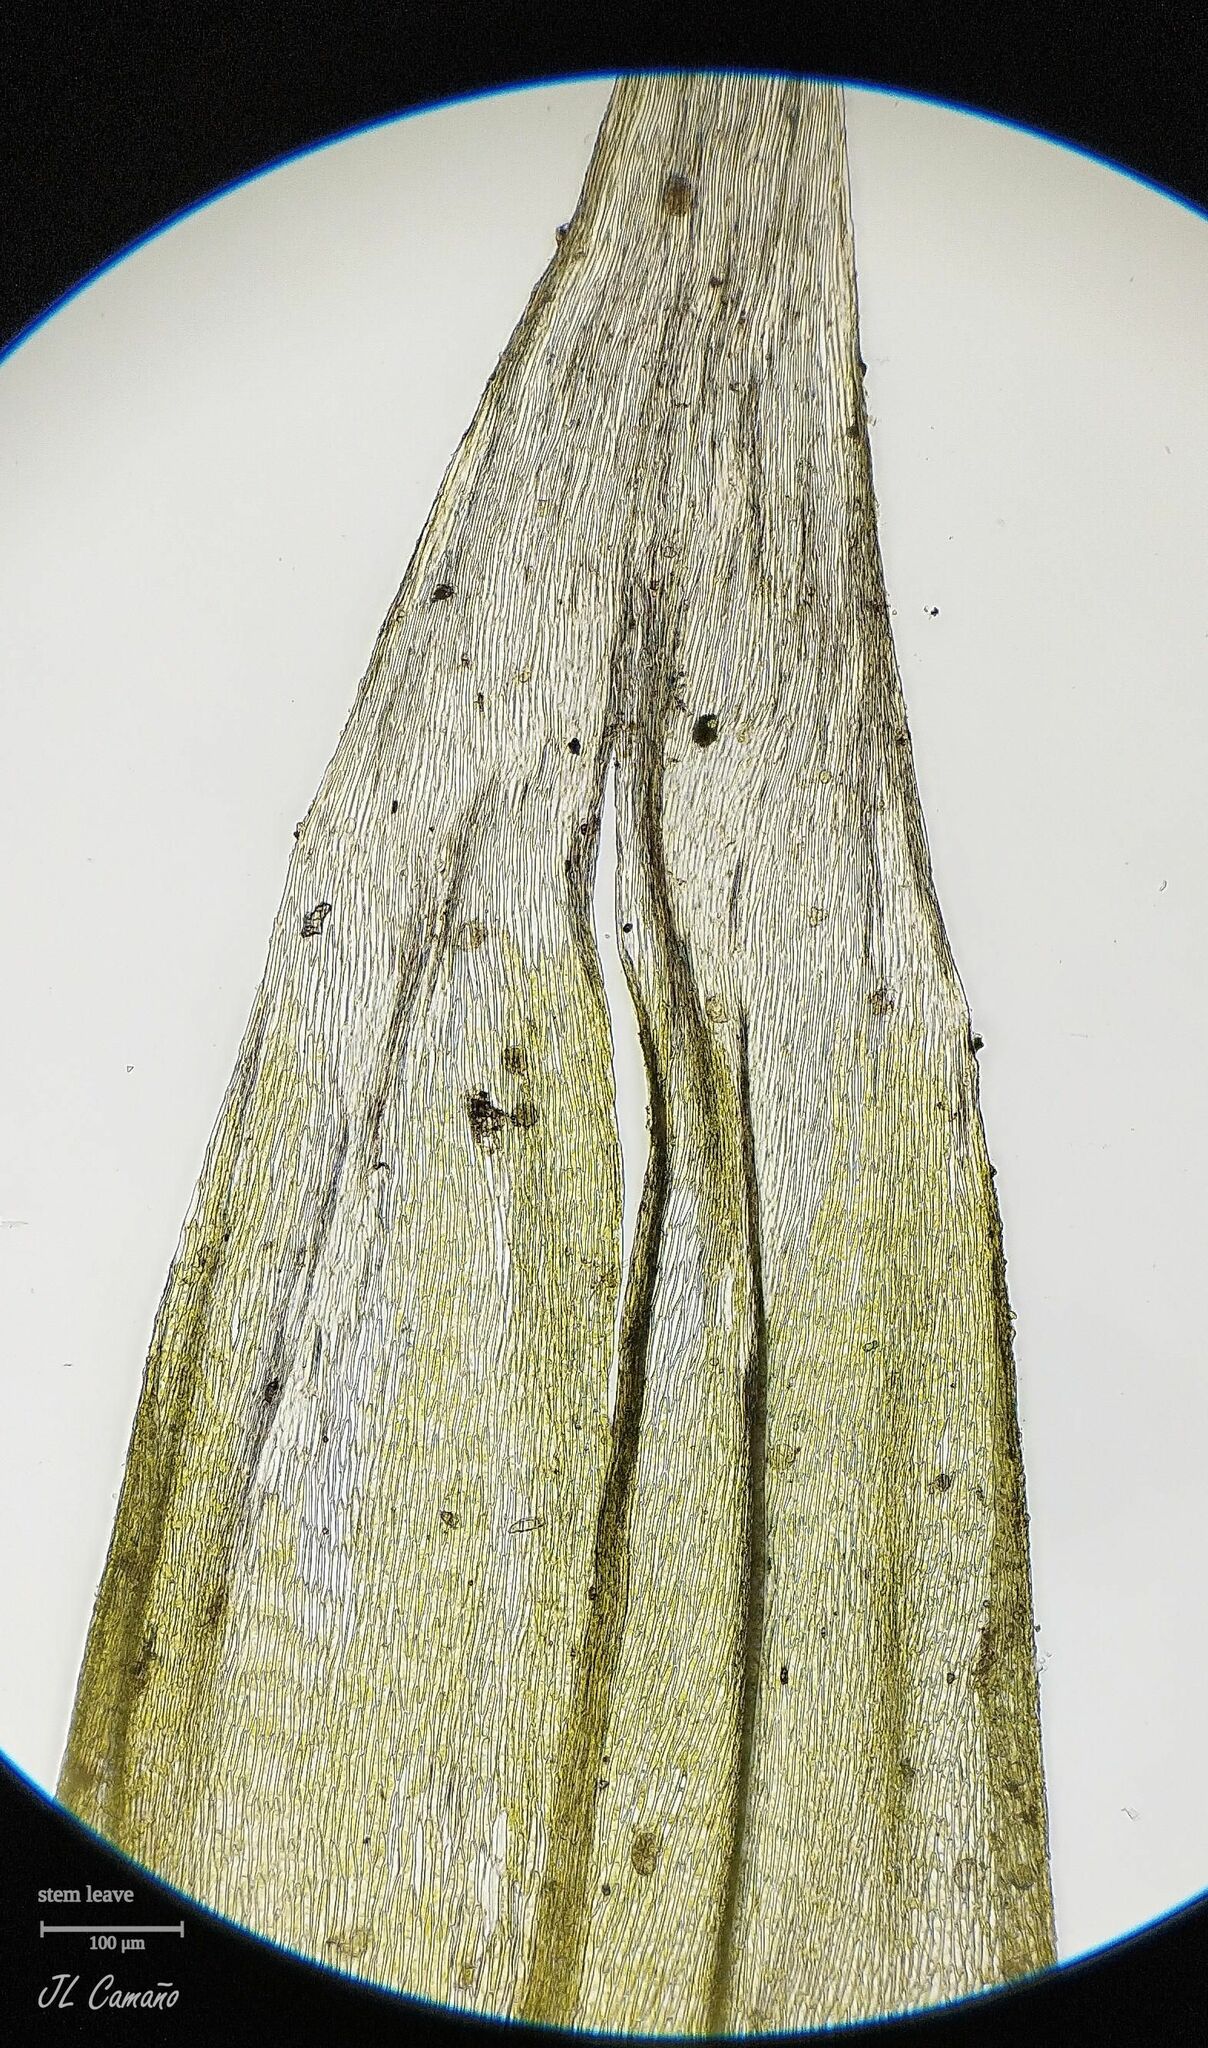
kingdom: Plantae
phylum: Bryophyta
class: Bryopsida
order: Hypnales
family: Brachytheciaceae
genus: Brachythecium
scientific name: Brachythecium albicans
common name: Whitish ragged moss
